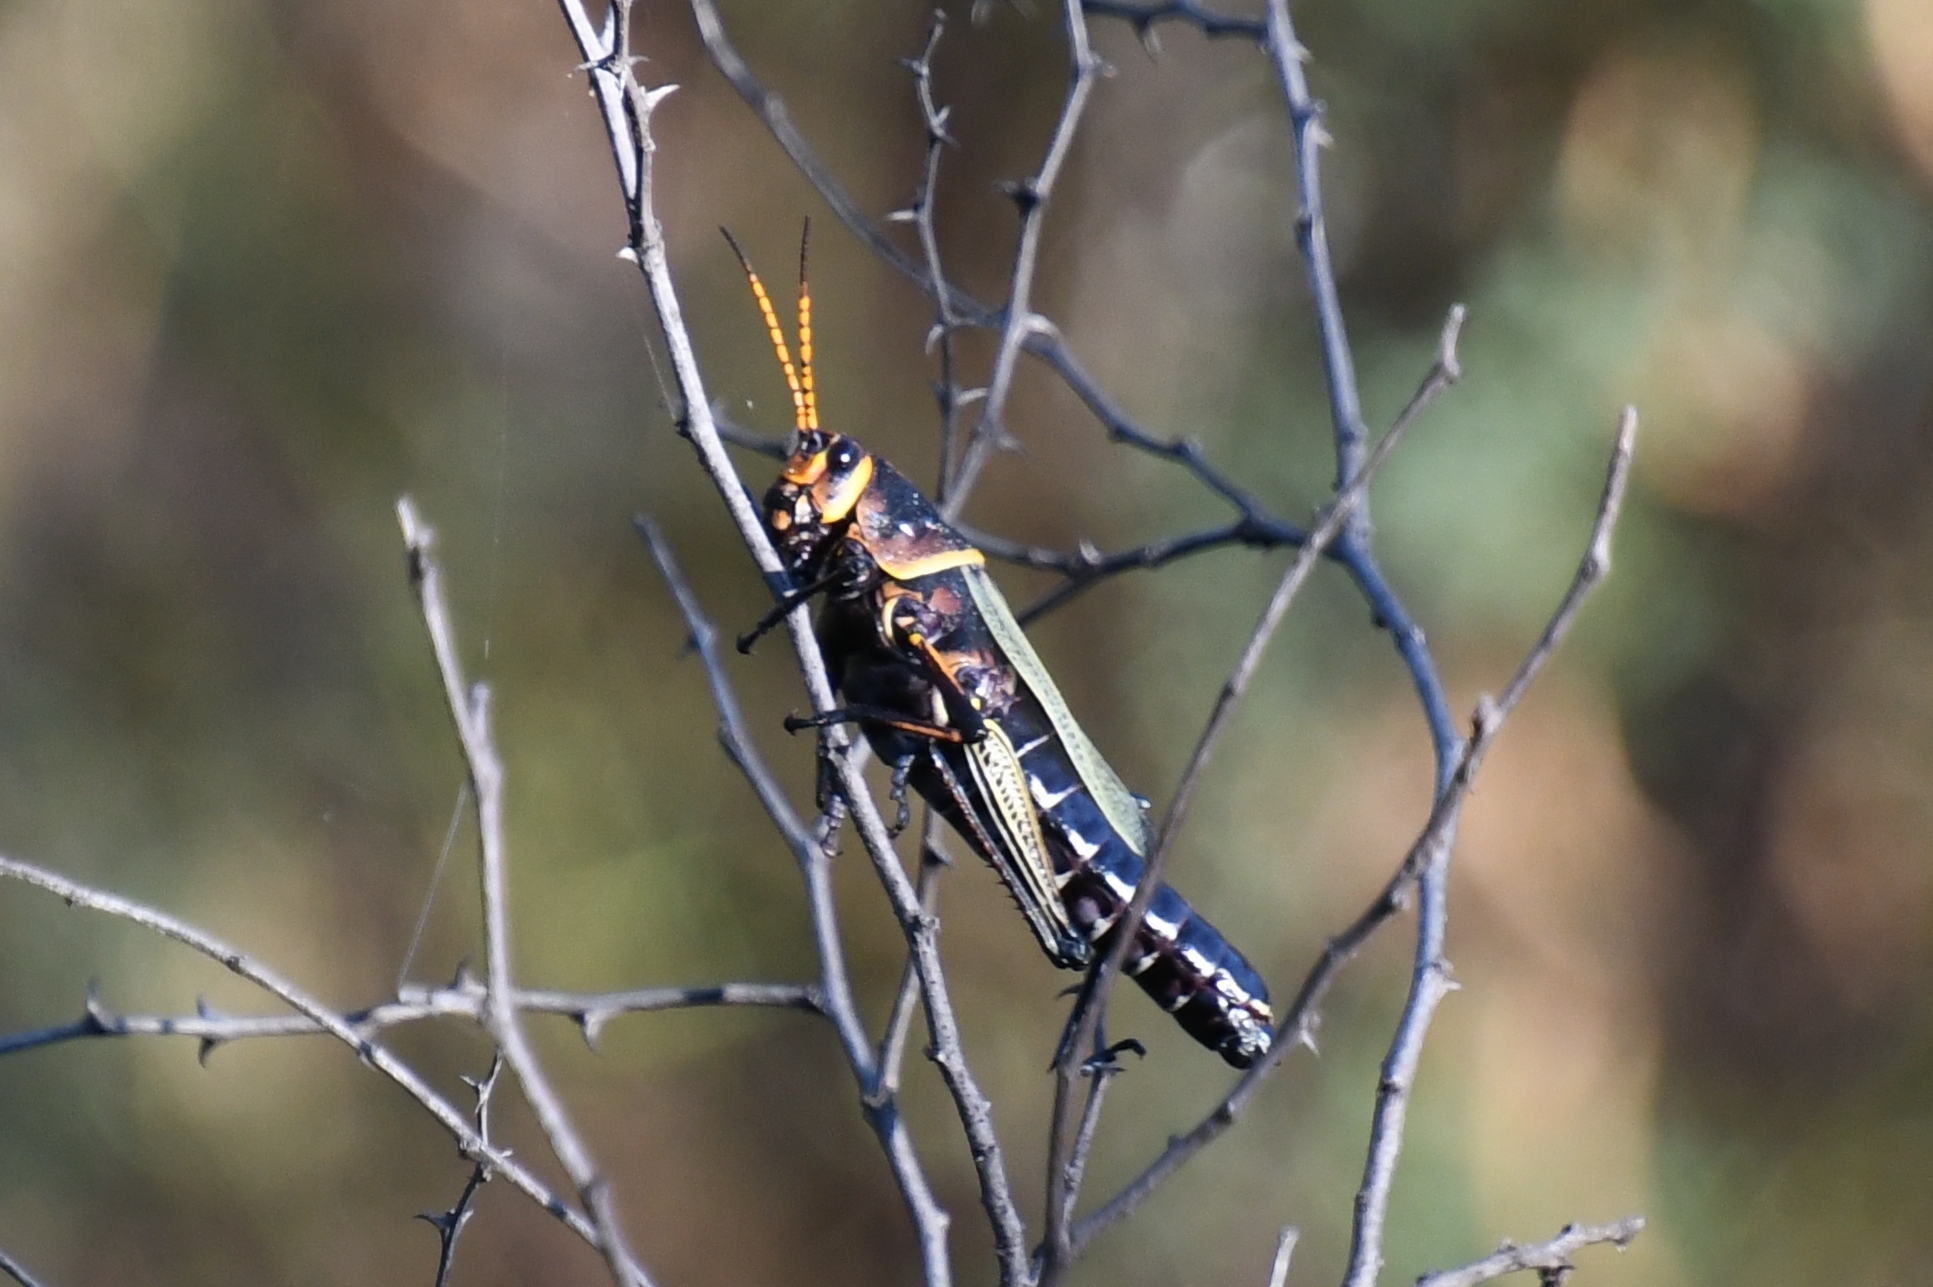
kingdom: Animalia
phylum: Arthropoda
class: Insecta
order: Orthoptera
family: Romaleidae
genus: Romalea
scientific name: Romalea
